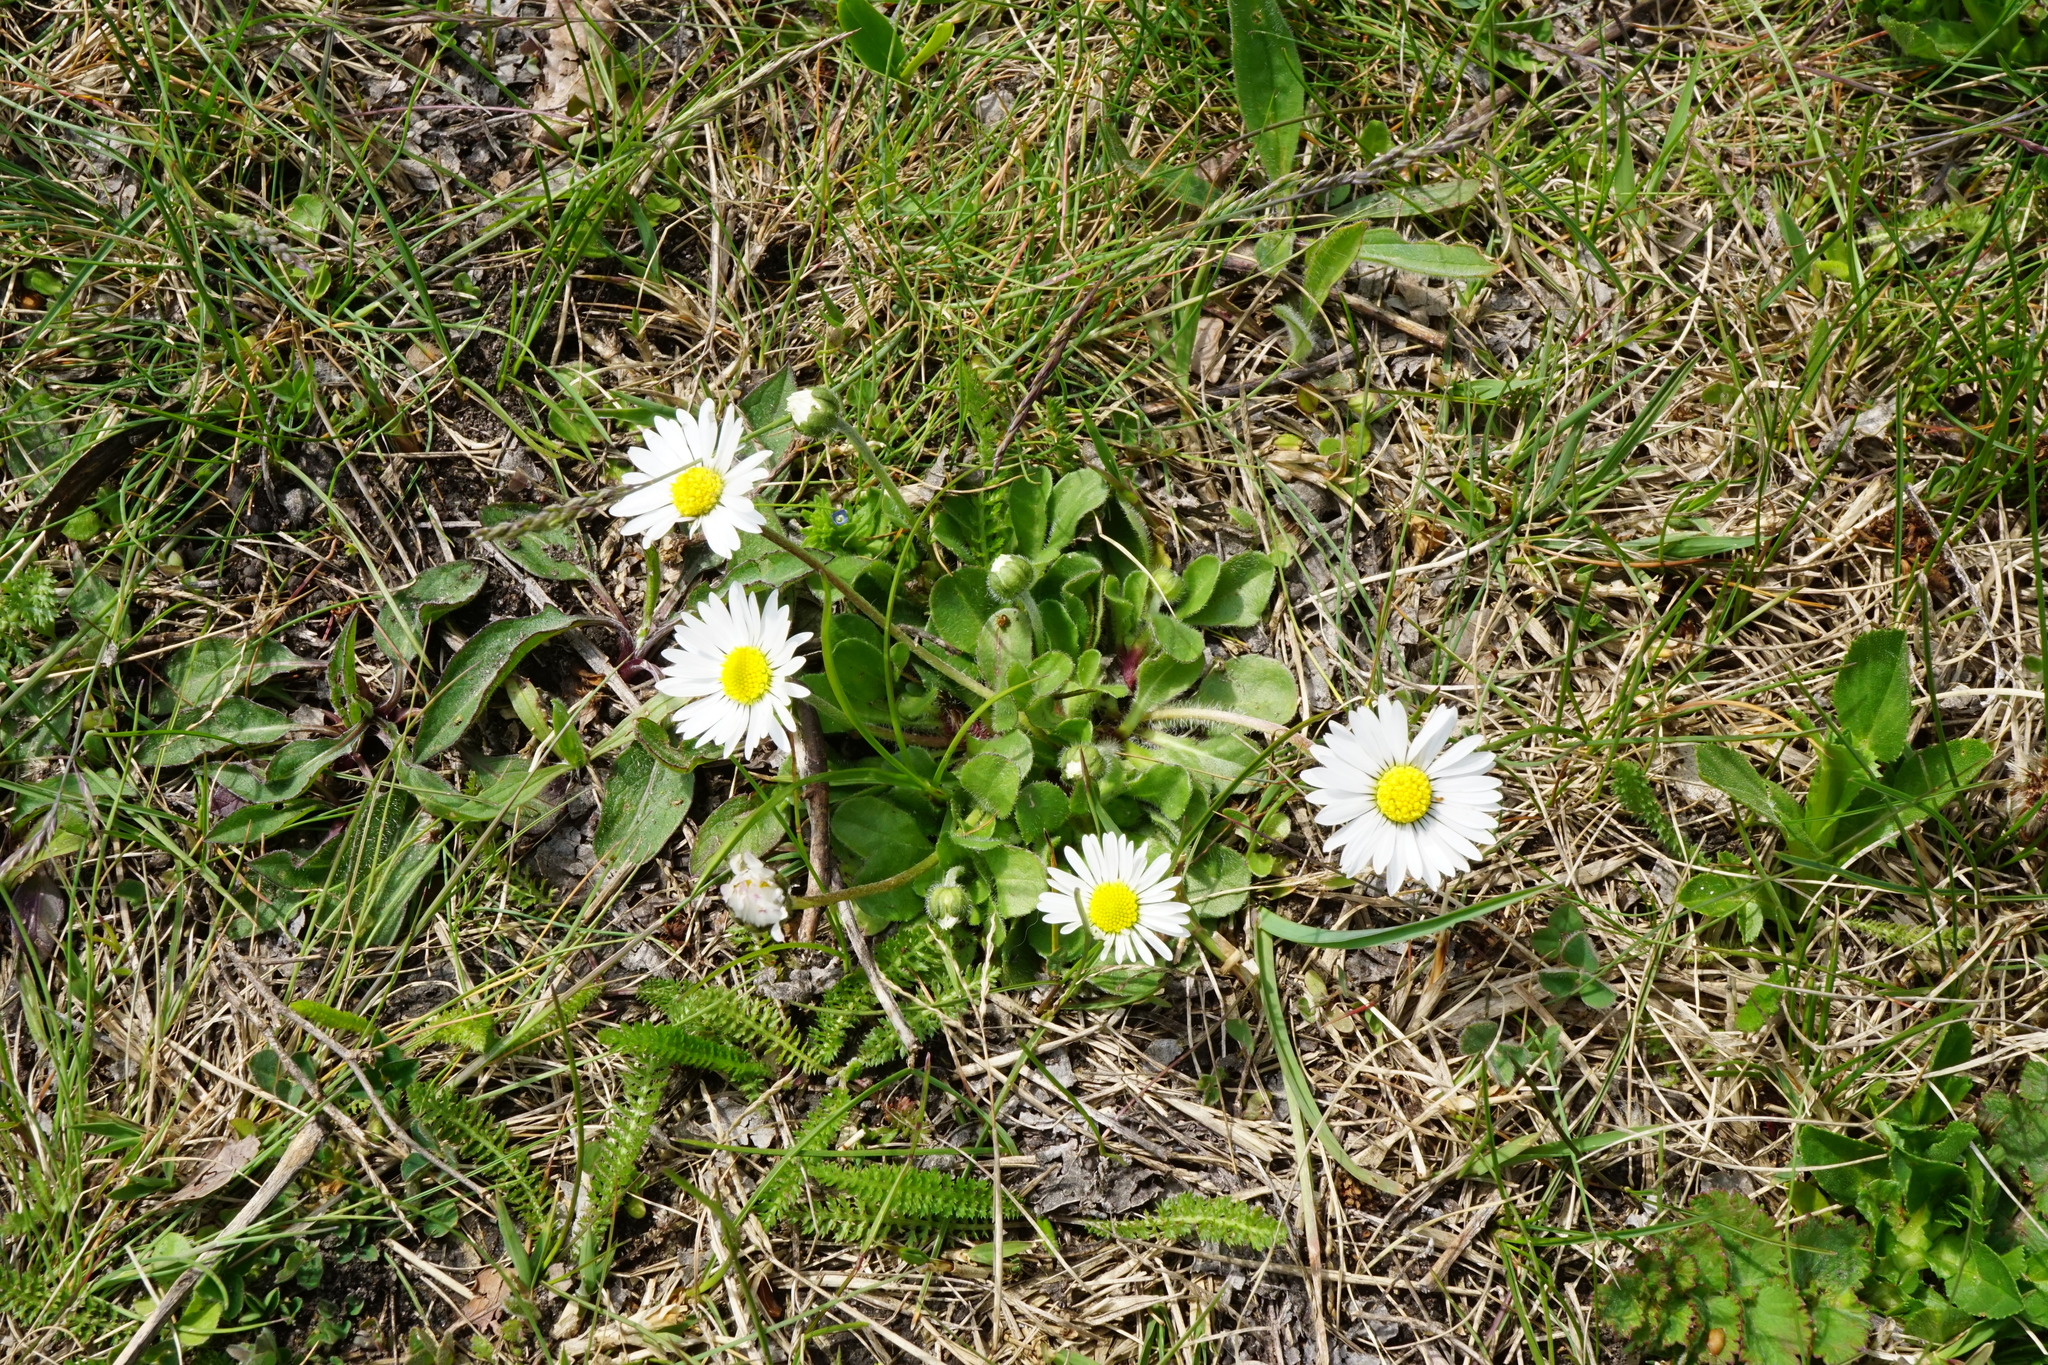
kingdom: Plantae
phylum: Tracheophyta
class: Magnoliopsida
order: Asterales
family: Asteraceae
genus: Bellis
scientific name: Bellis perennis
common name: Lawndaisy
